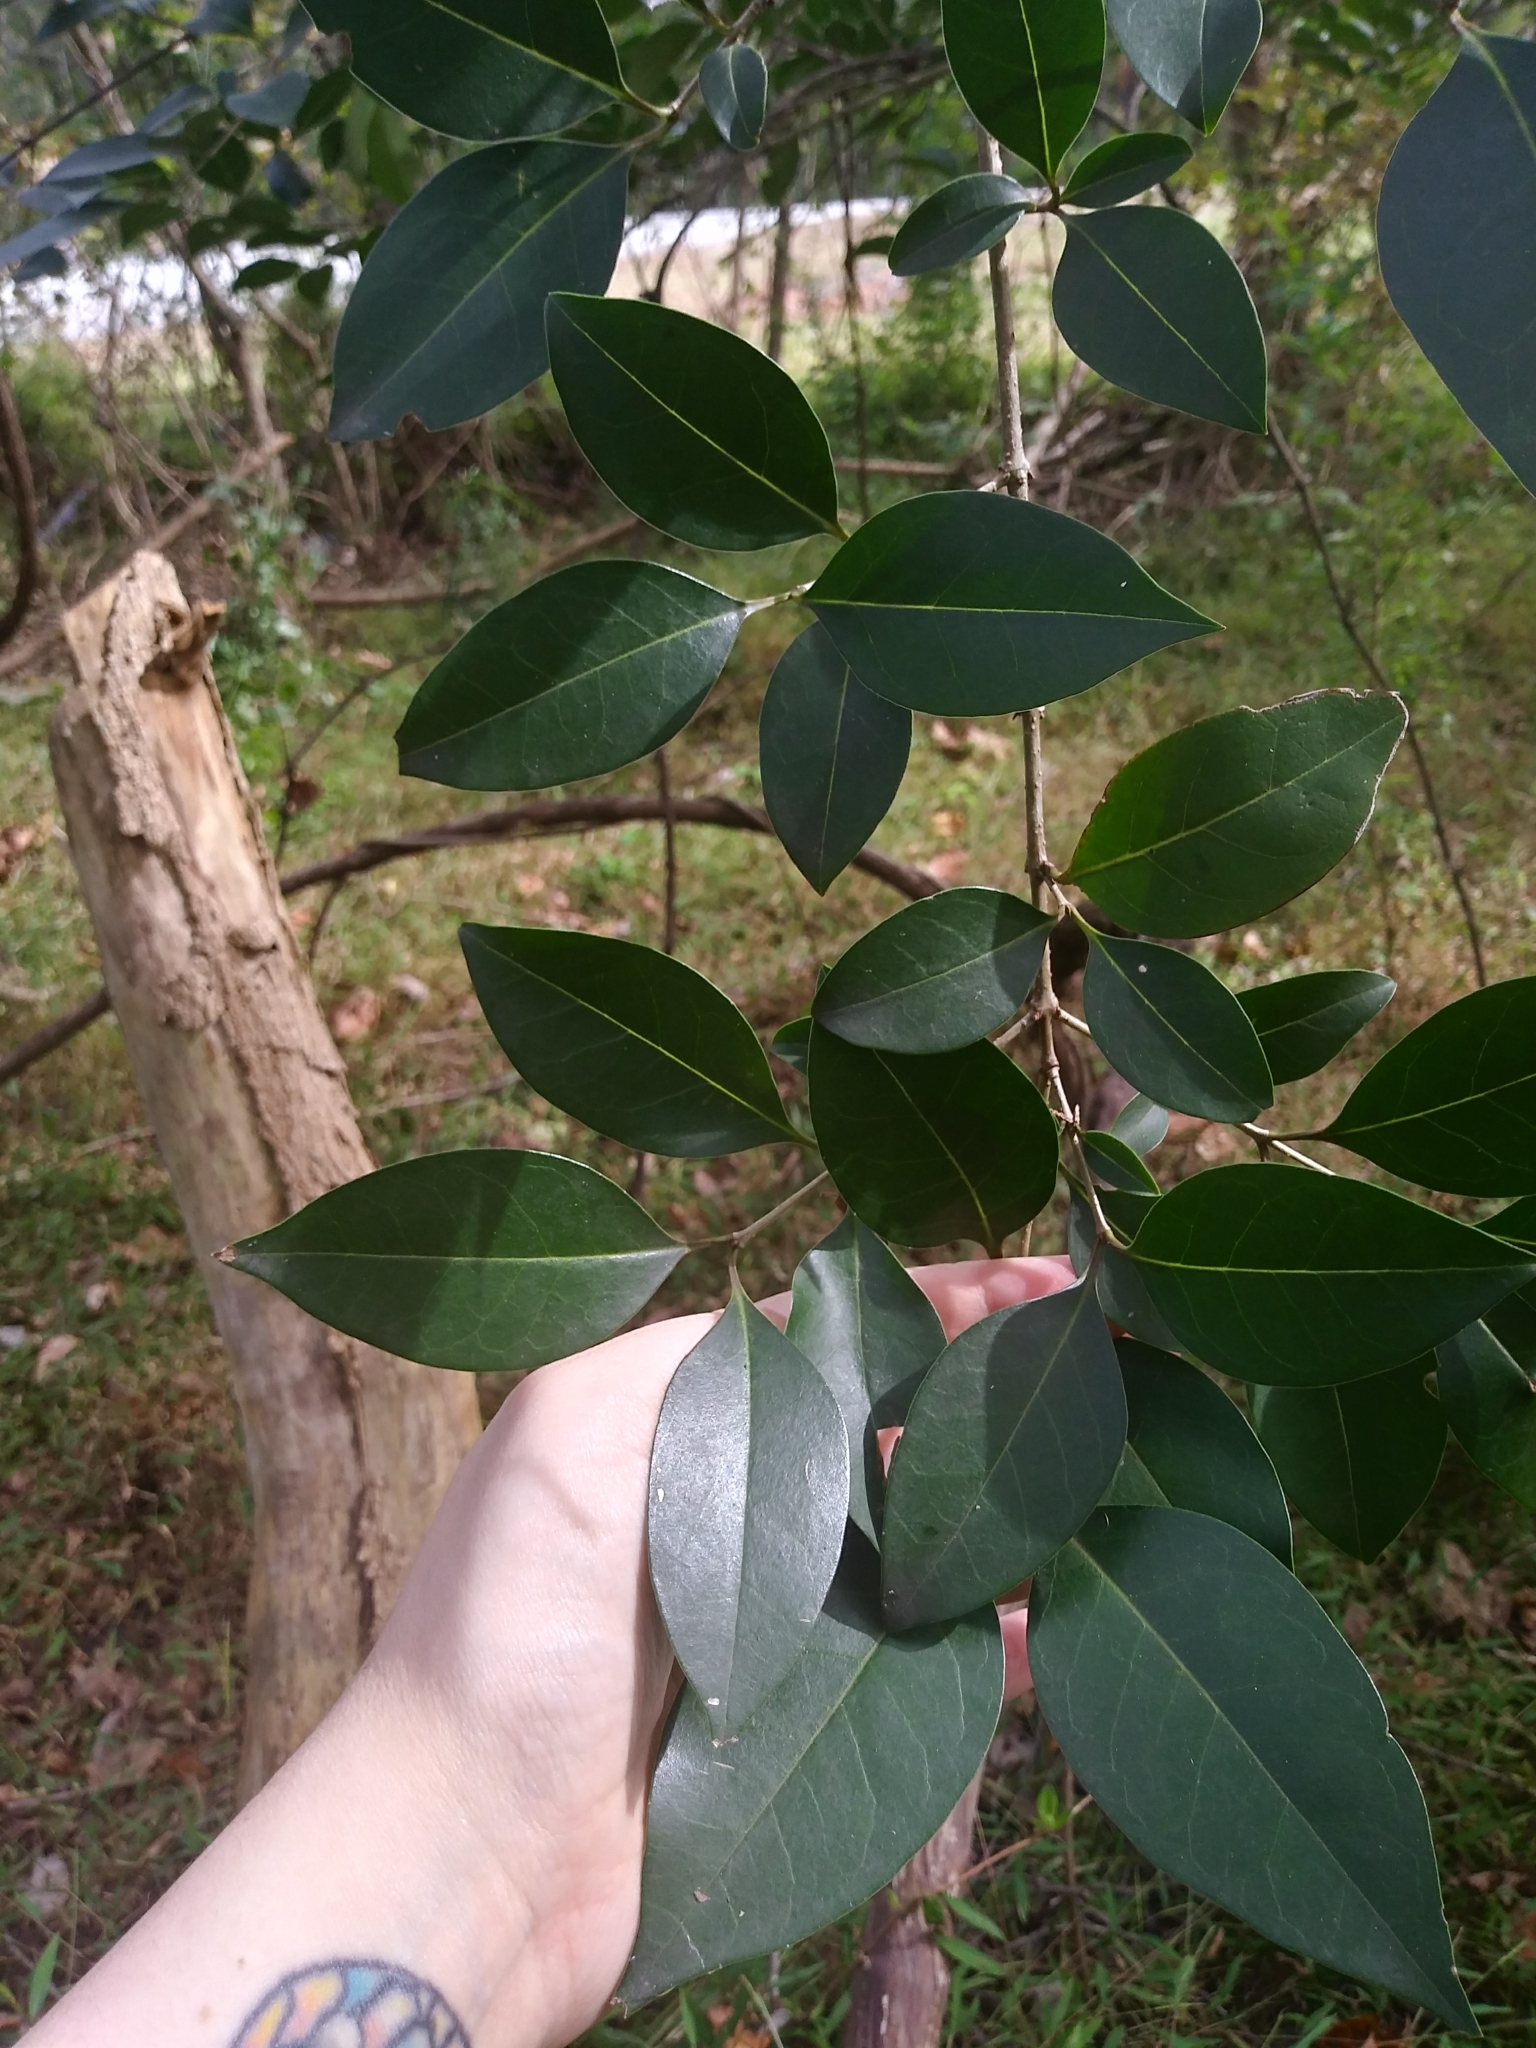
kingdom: Plantae
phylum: Tracheophyta
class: Magnoliopsida
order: Lamiales
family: Oleaceae
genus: Ligustrum
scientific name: Ligustrum lucidum
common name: Glossy privet
